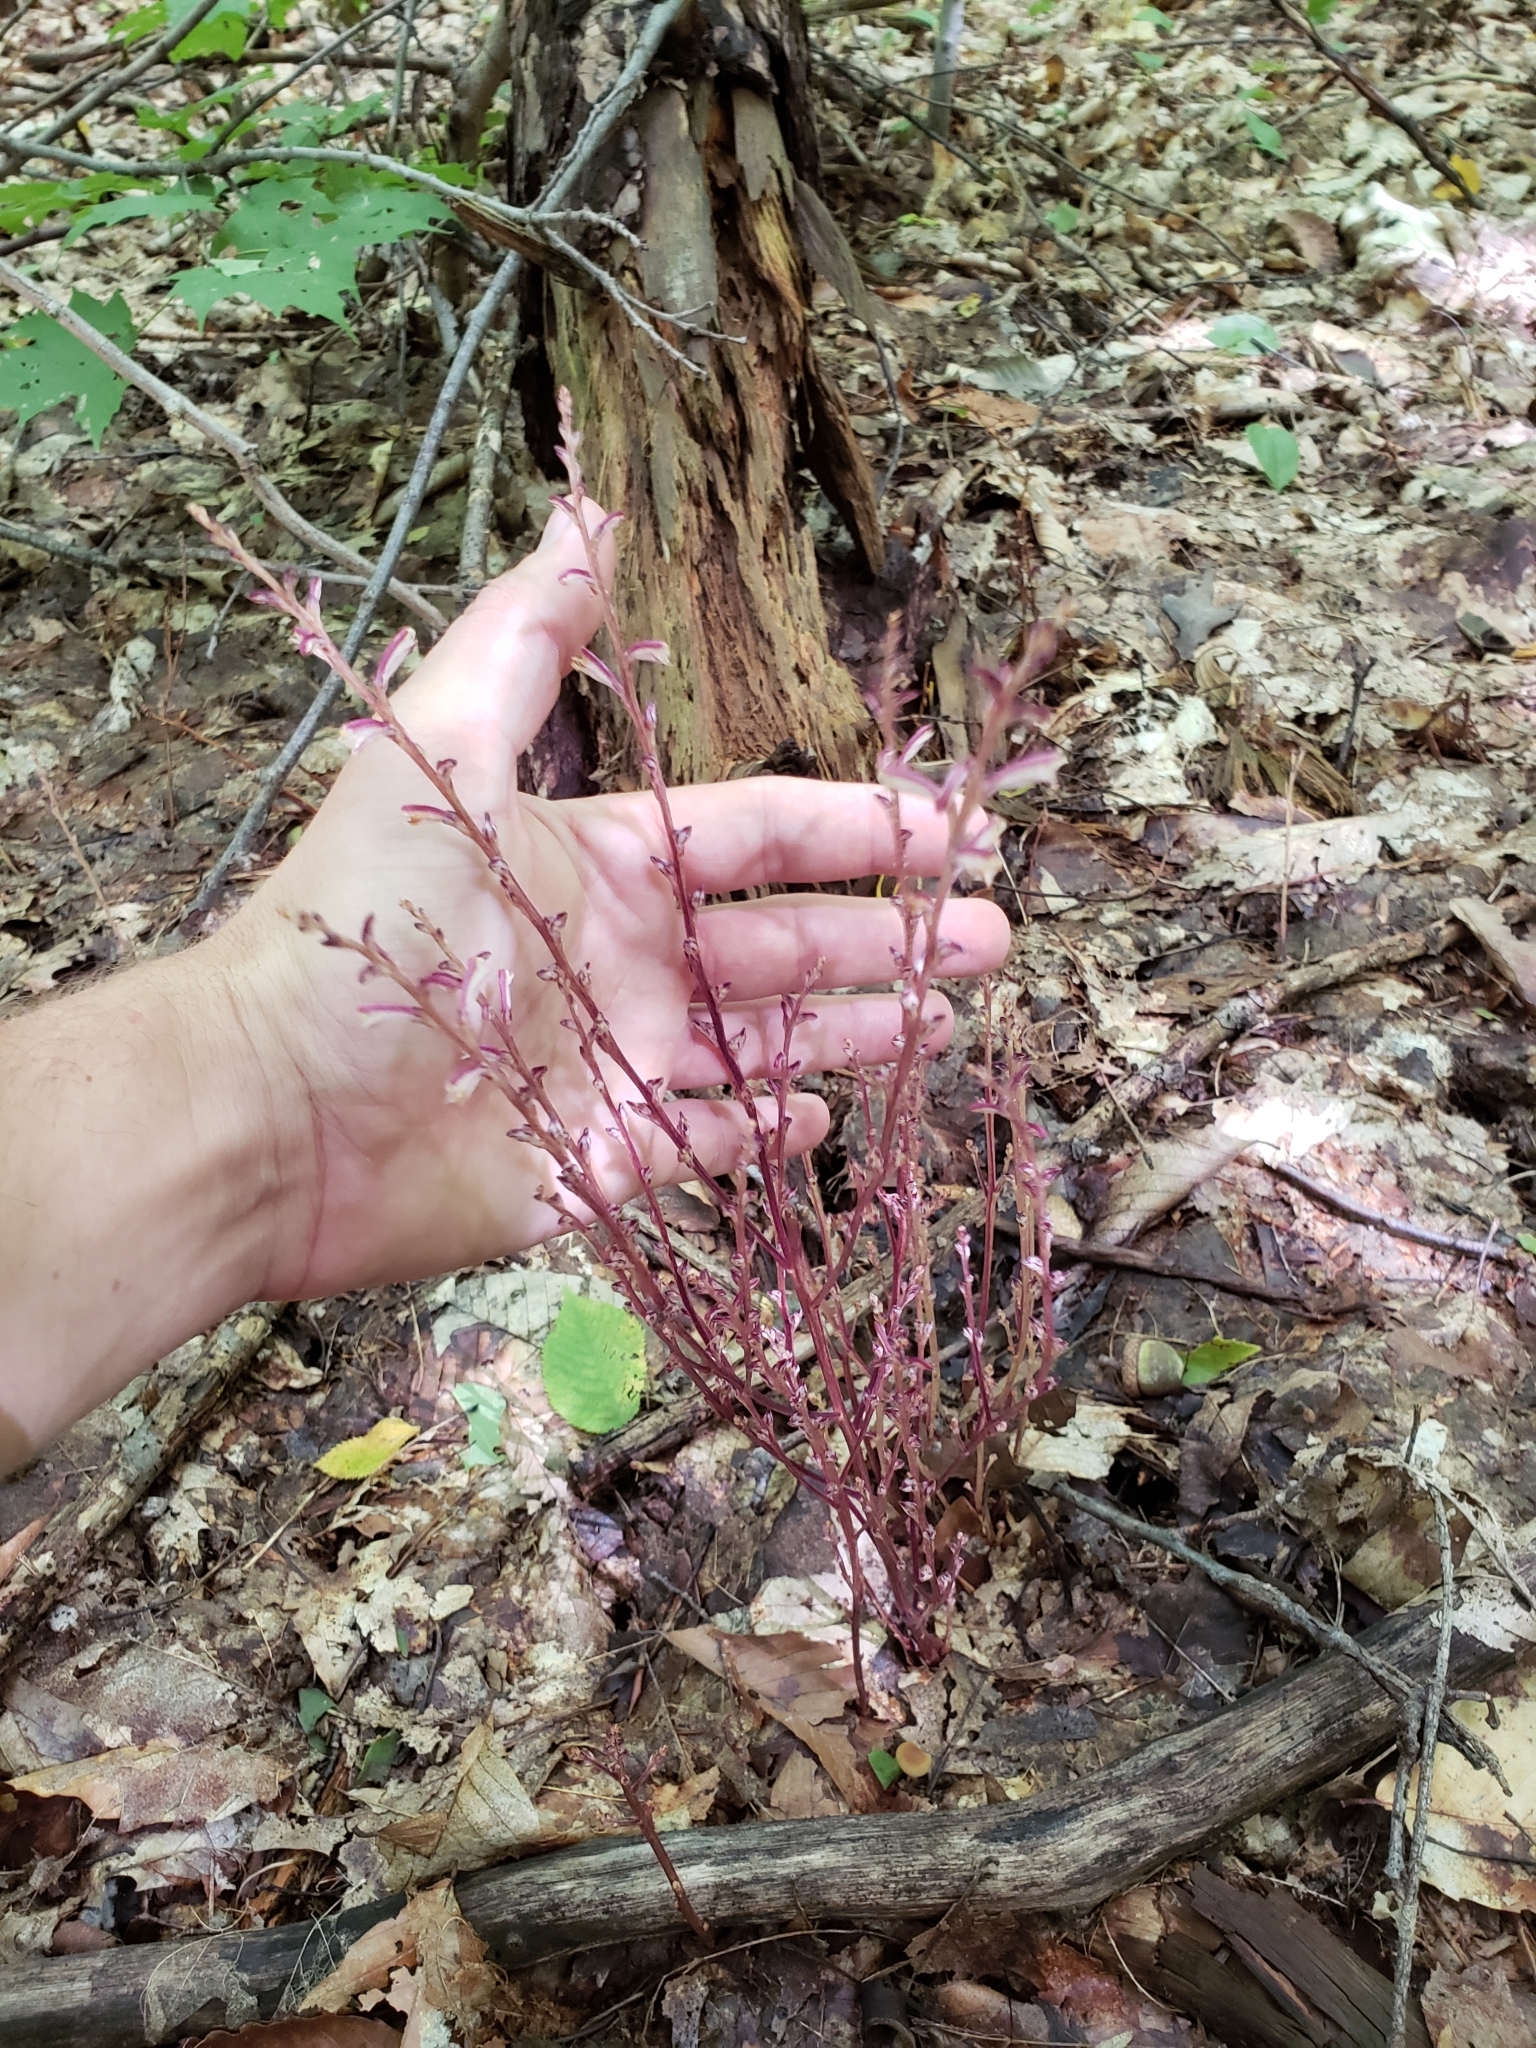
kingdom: Plantae
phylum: Tracheophyta
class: Magnoliopsida
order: Lamiales
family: Orobanchaceae
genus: Epifagus
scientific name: Epifagus virginiana
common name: Beechdrops
